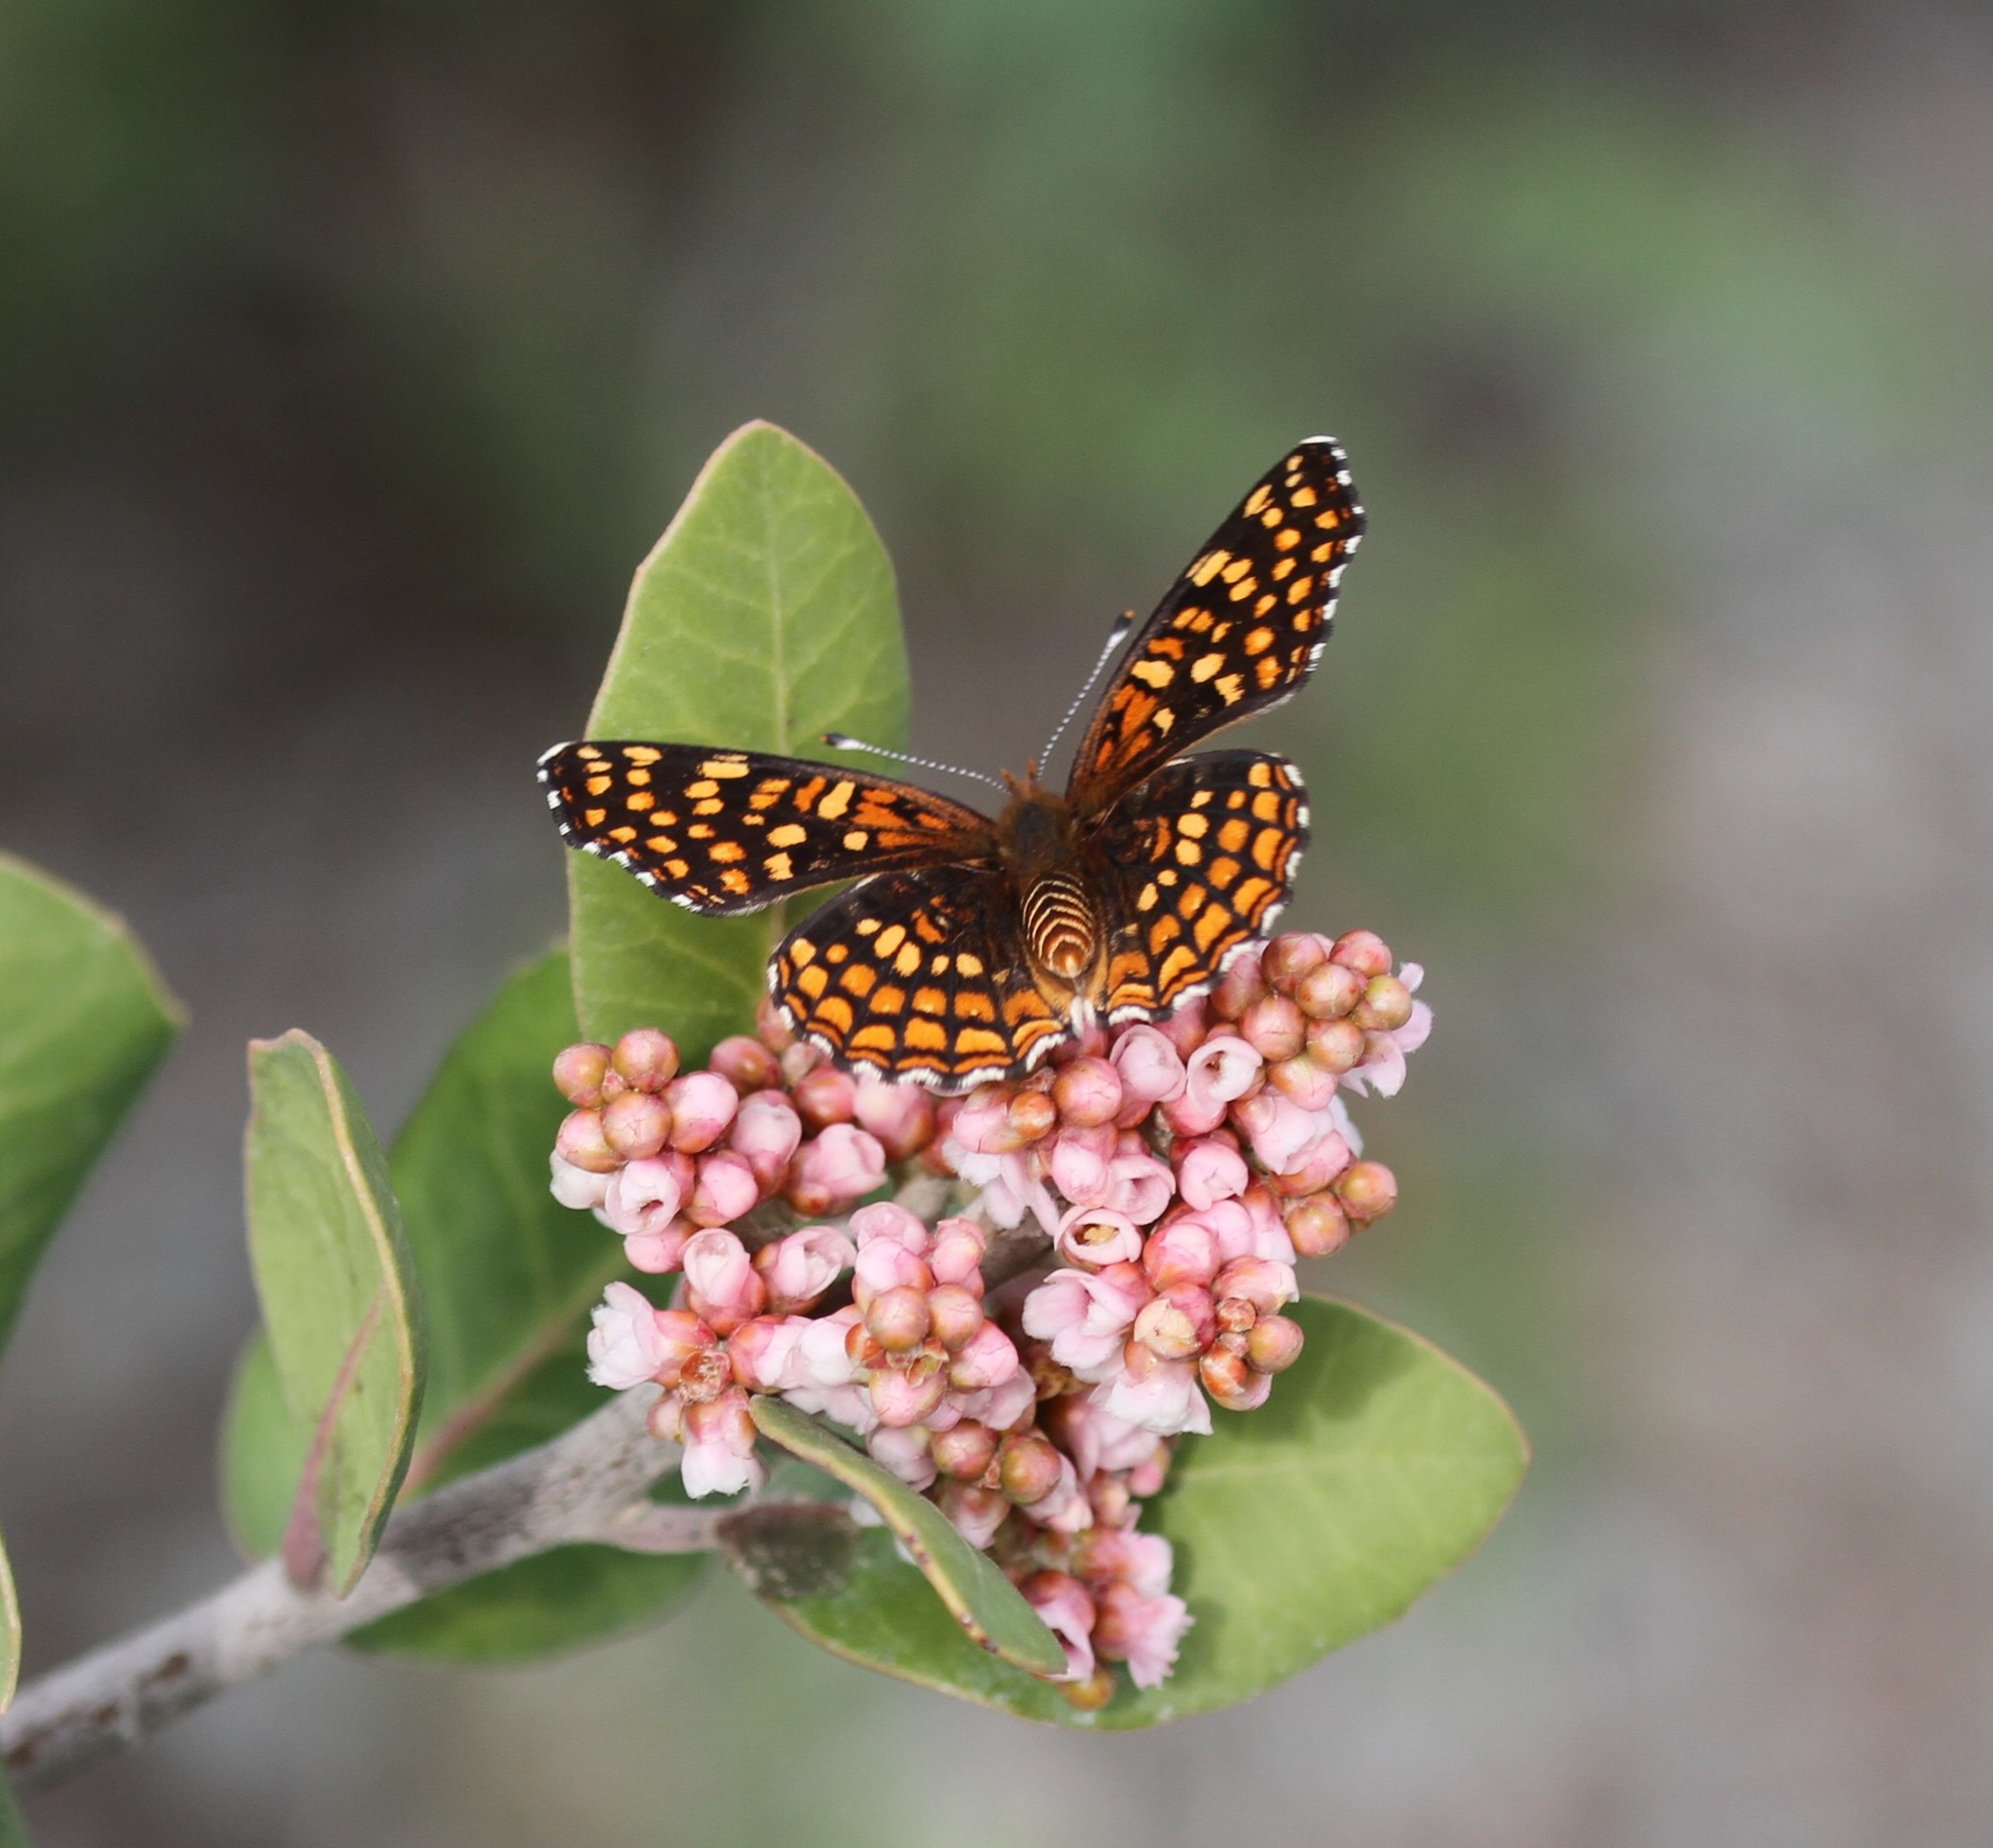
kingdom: Animalia
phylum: Arthropoda
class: Insecta
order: Lepidoptera
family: Nymphalidae
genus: Chlosyne
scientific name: Chlosyne gabbii
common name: Gabb's checkerspot
